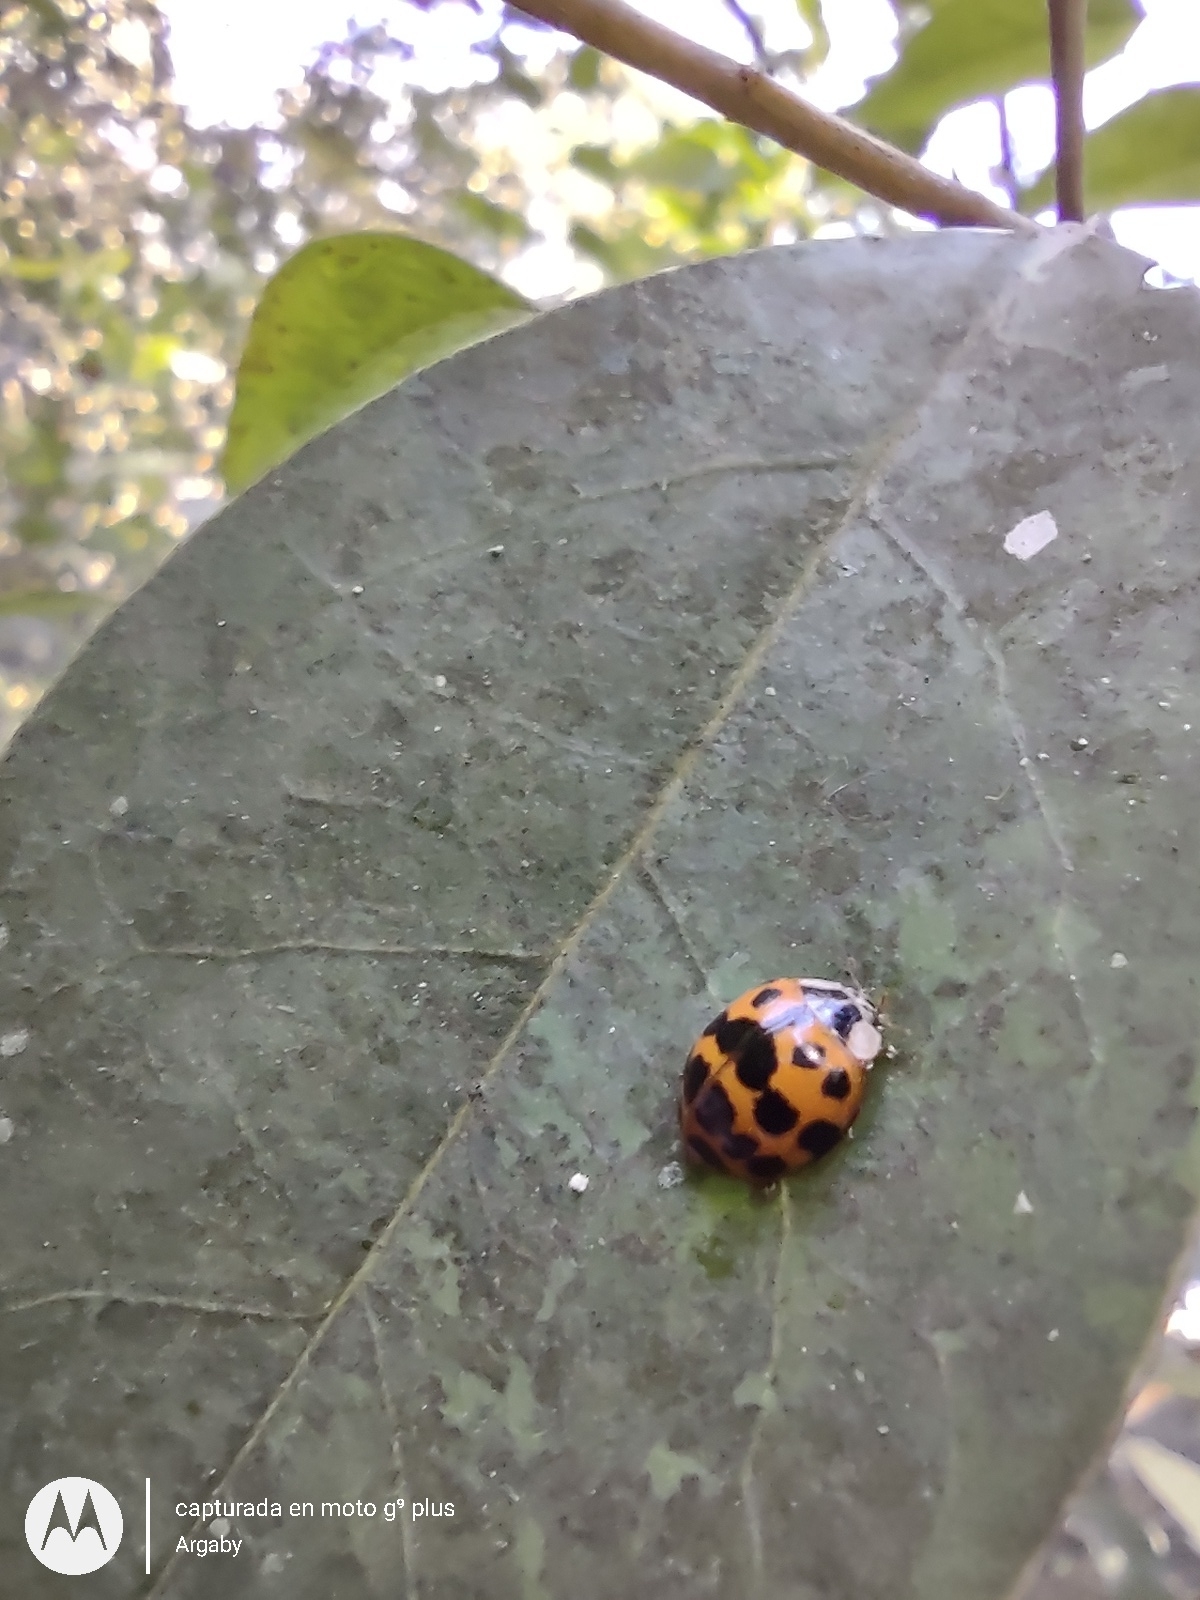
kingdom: Animalia
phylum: Arthropoda
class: Insecta
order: Coleoptera
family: Coccinellidae
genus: Harmonia
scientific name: Harmonia axyridis
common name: Harlequin ladybird
